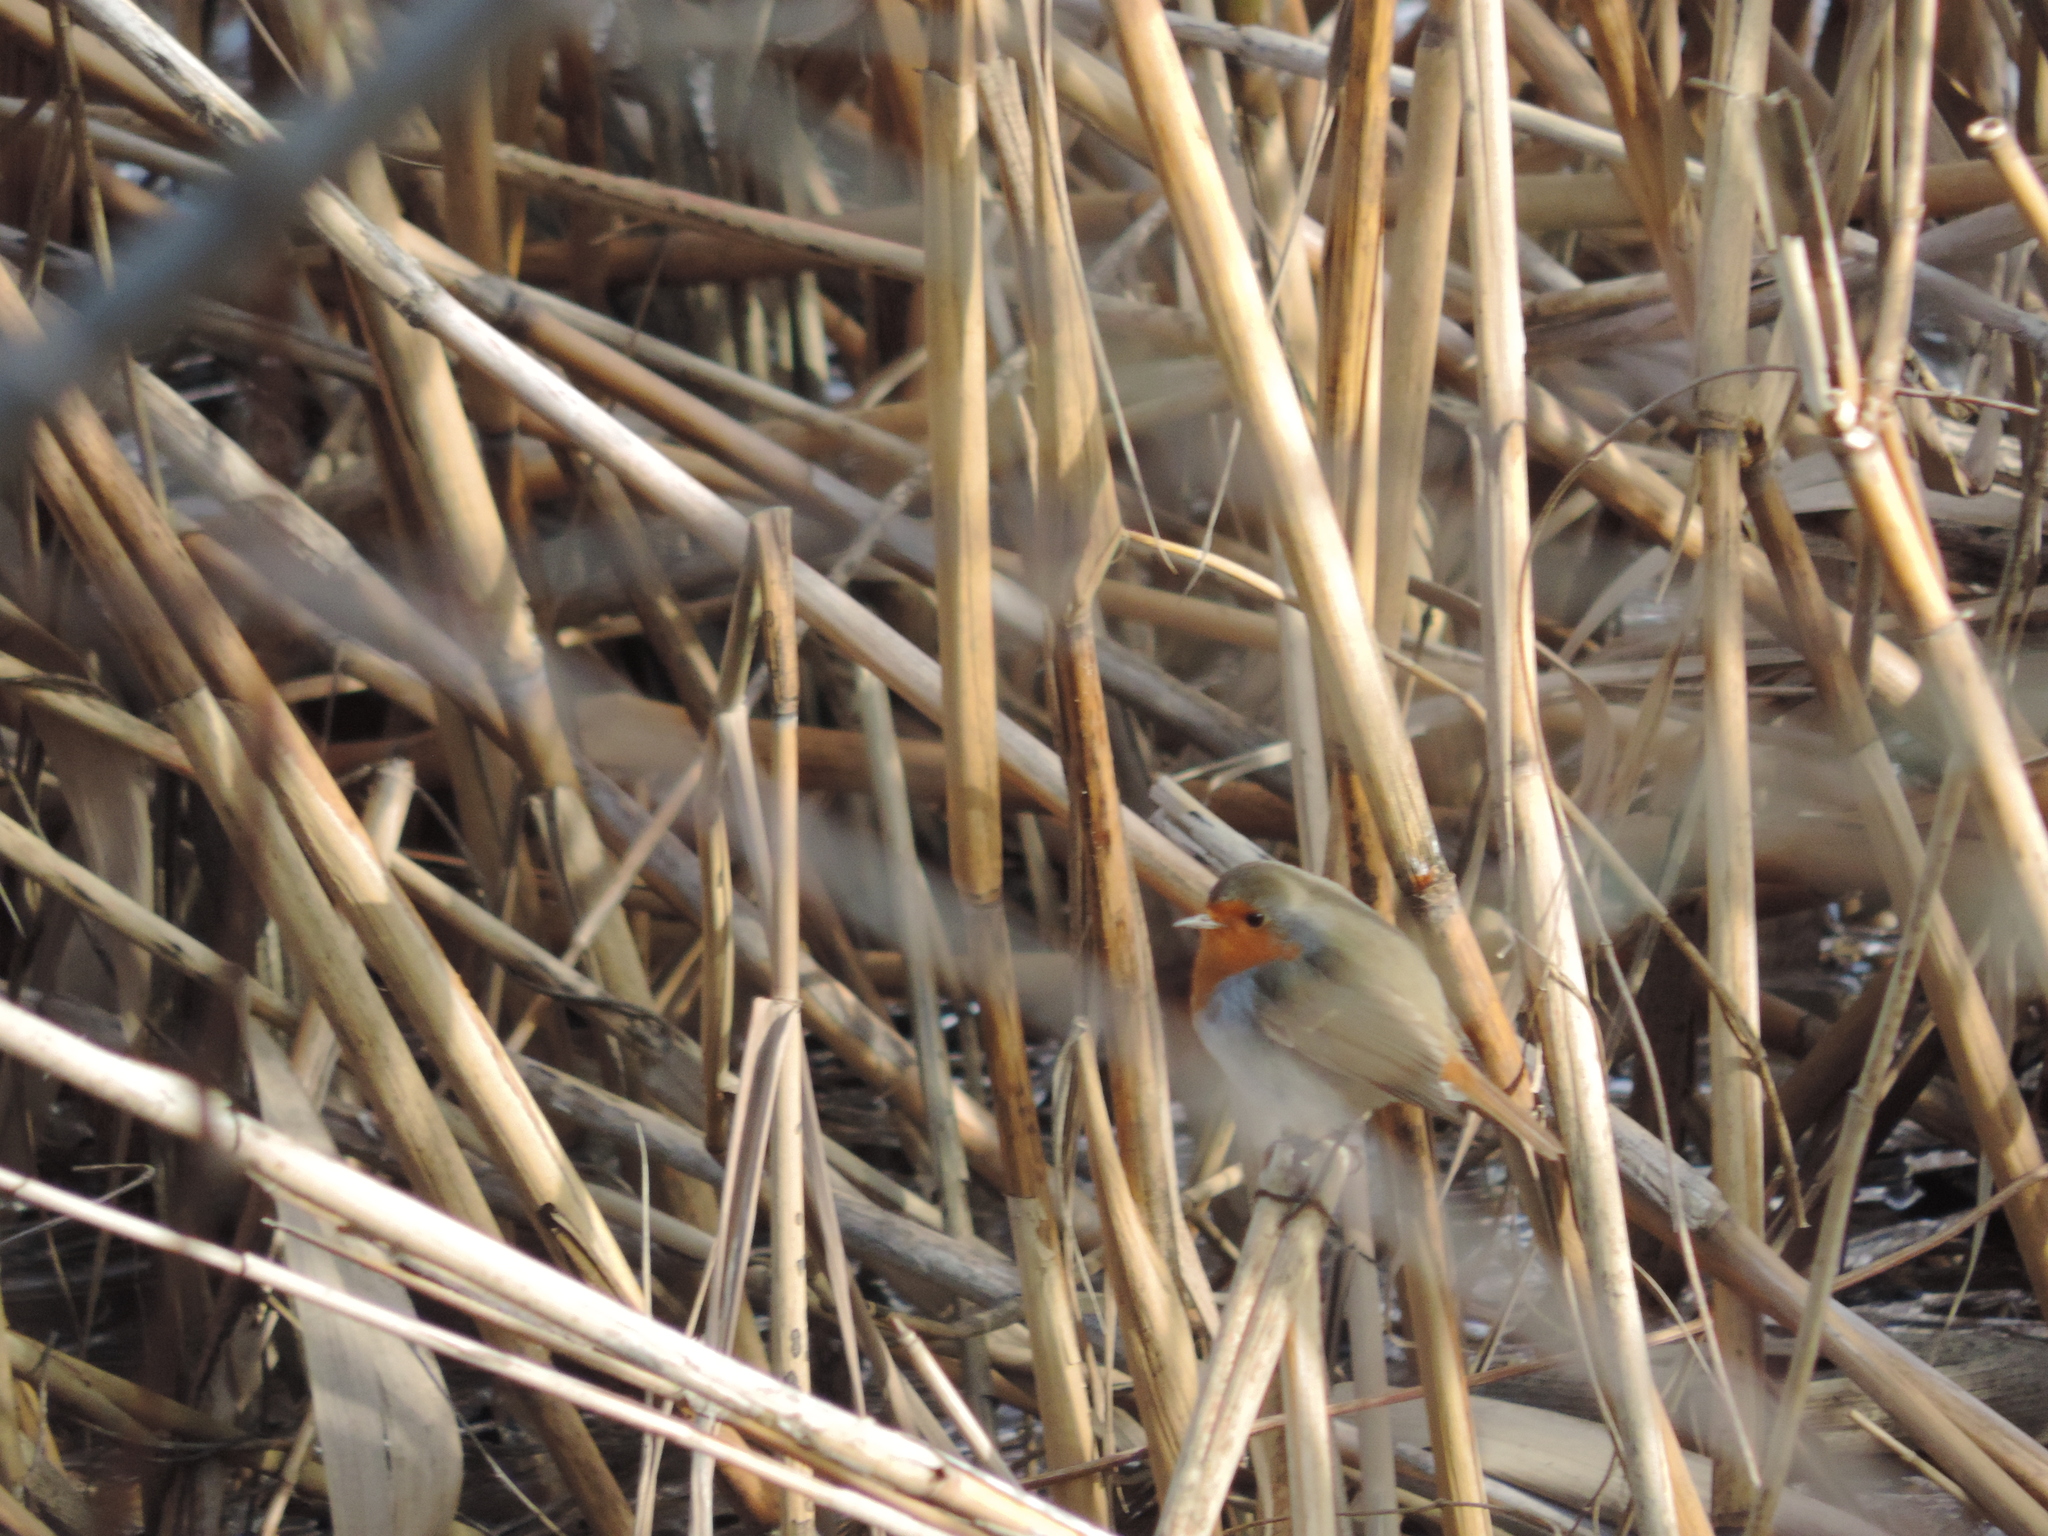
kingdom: Animalia
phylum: Chordata
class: Aves
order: Passeriformes
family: Muscicapidae
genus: Erithacus
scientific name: Erithacus rubecula
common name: European robin
